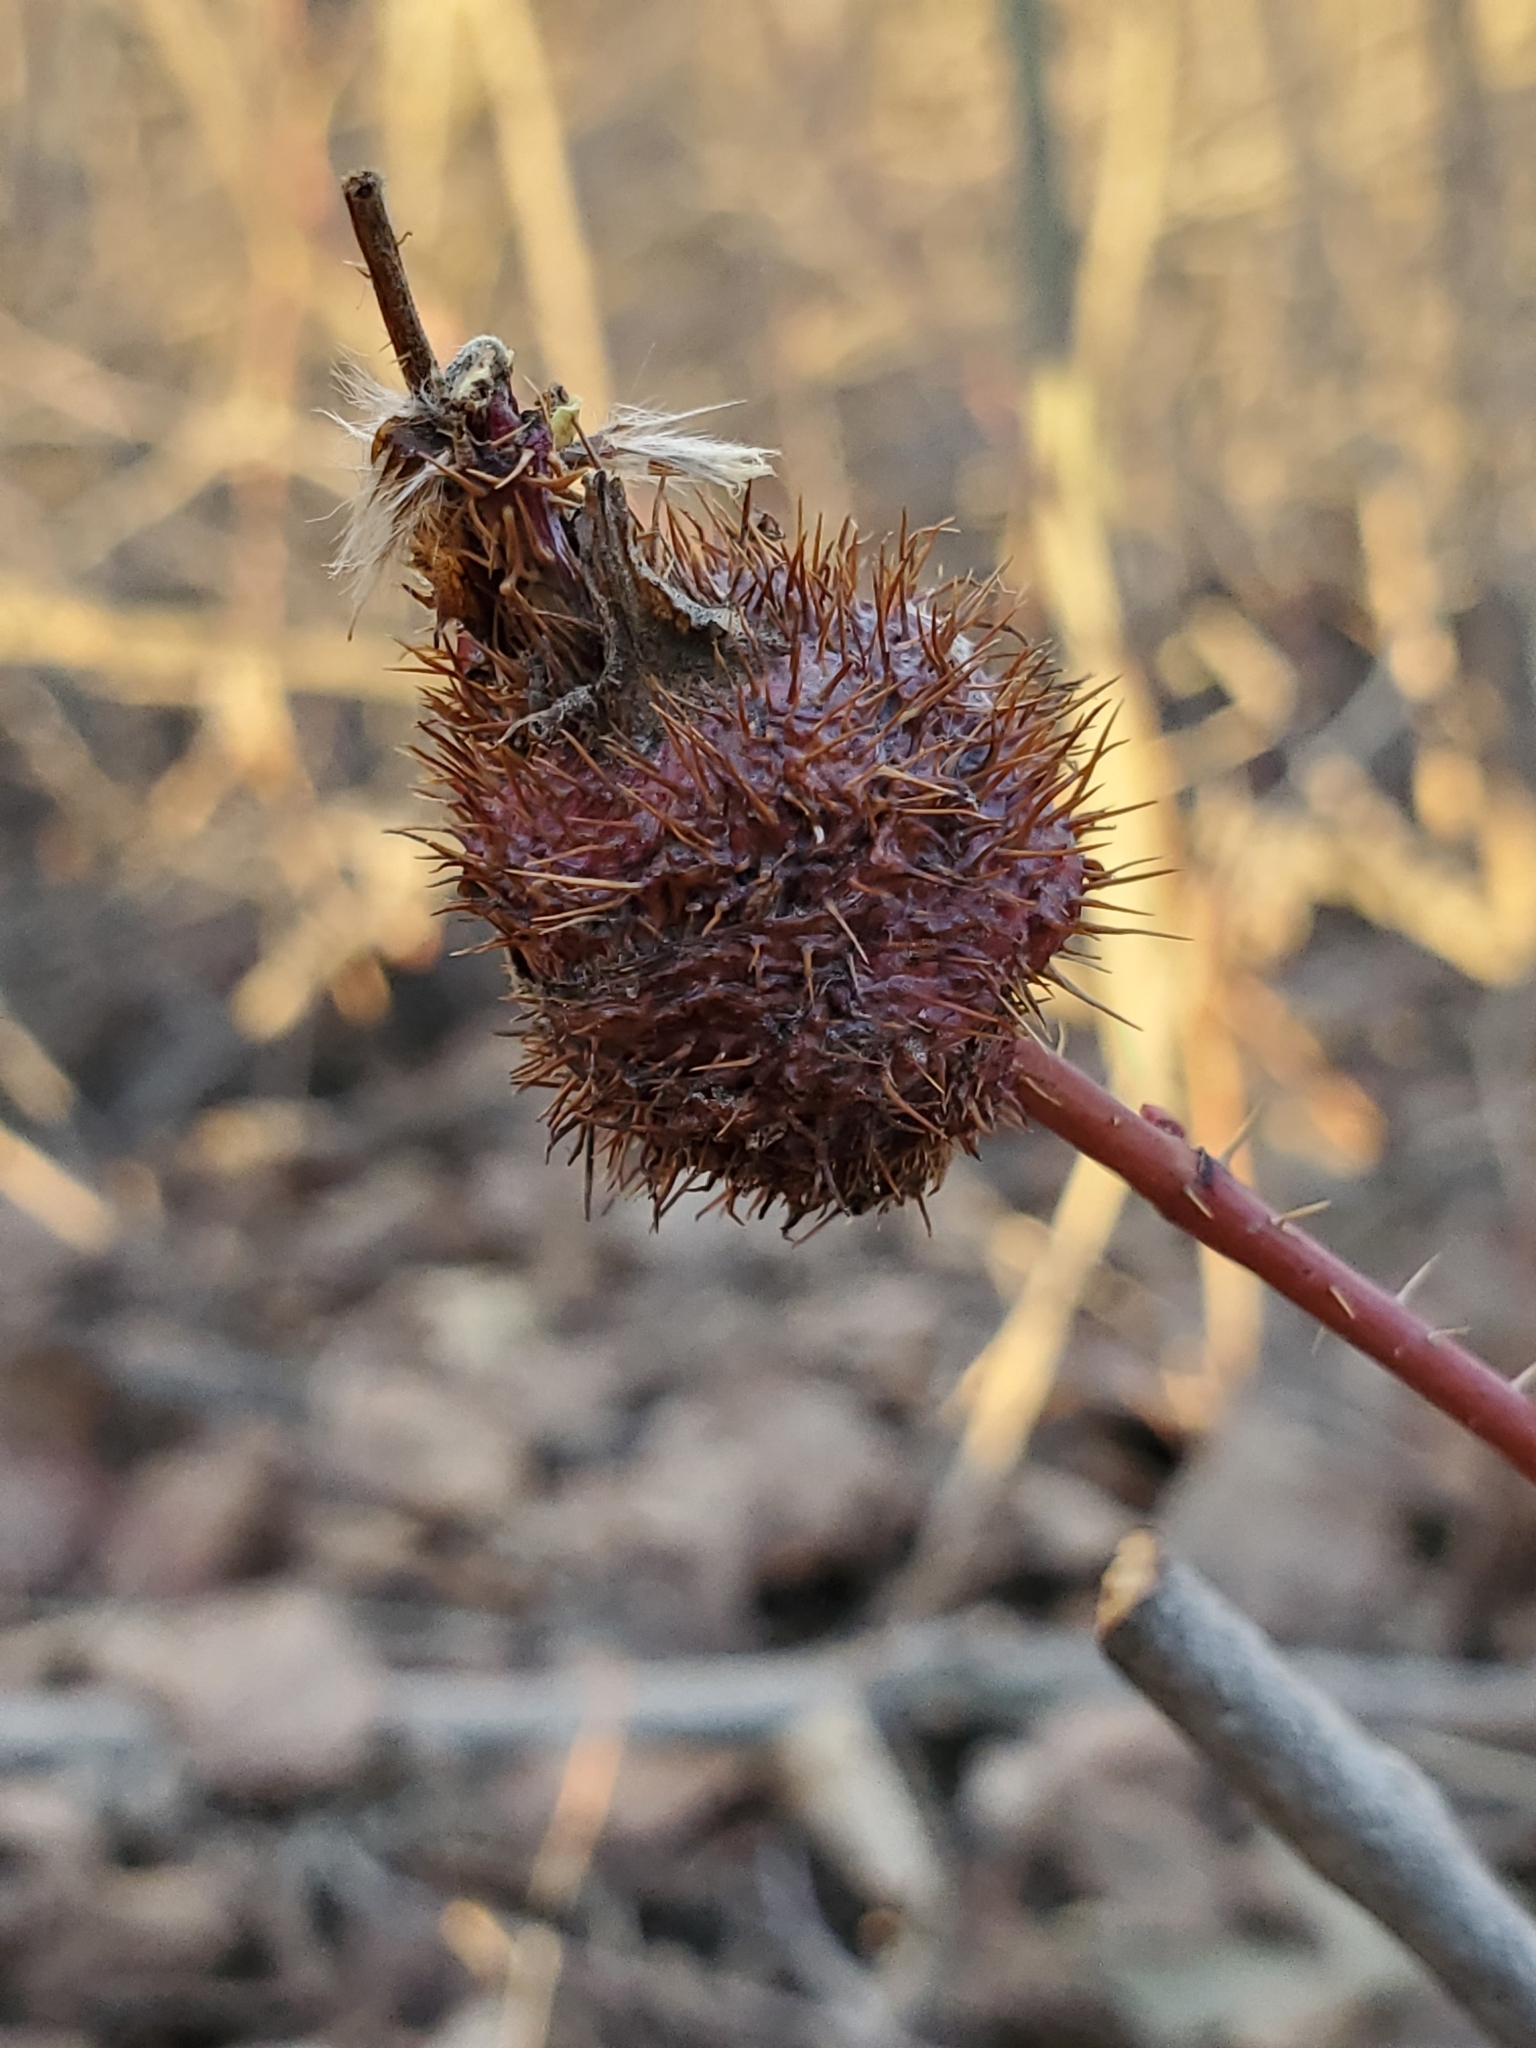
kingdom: Animalia
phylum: Arthropoda
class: Insecta
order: Hymenoptera
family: Cynipidae
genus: Diplolepis
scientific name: Diplolepis spinosa
